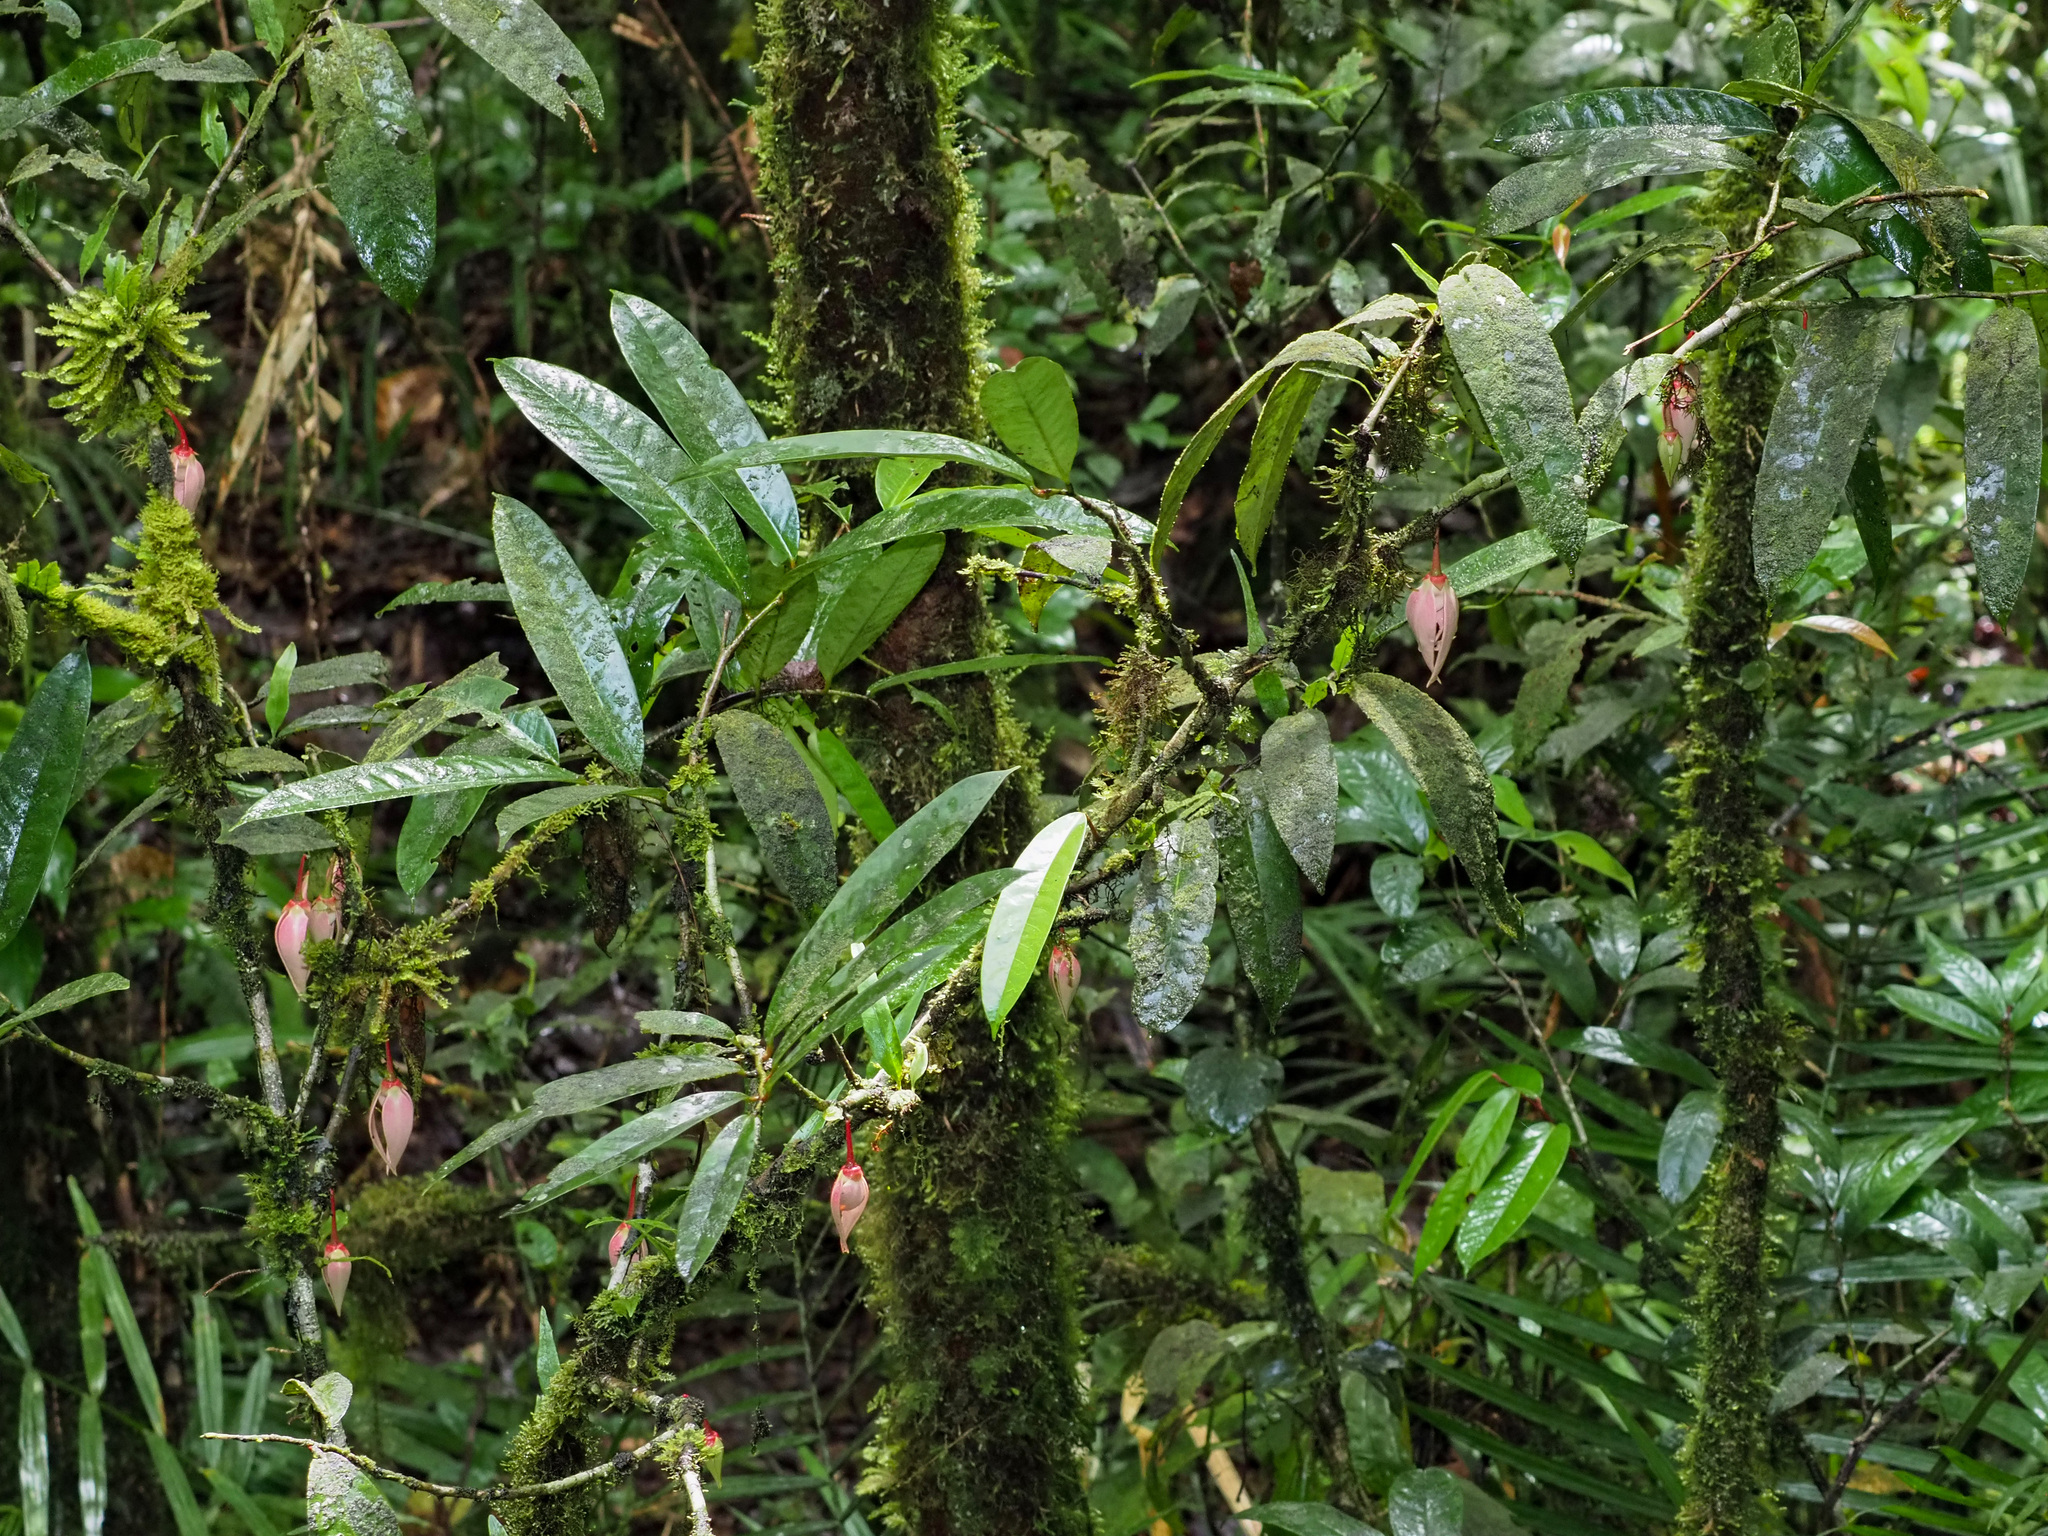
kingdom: Plantae
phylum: Tracheophyta
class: Magnoliopsida
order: Magnoliales
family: Annonaceae
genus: Goniothalamus
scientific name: Goniothalamus roseus
